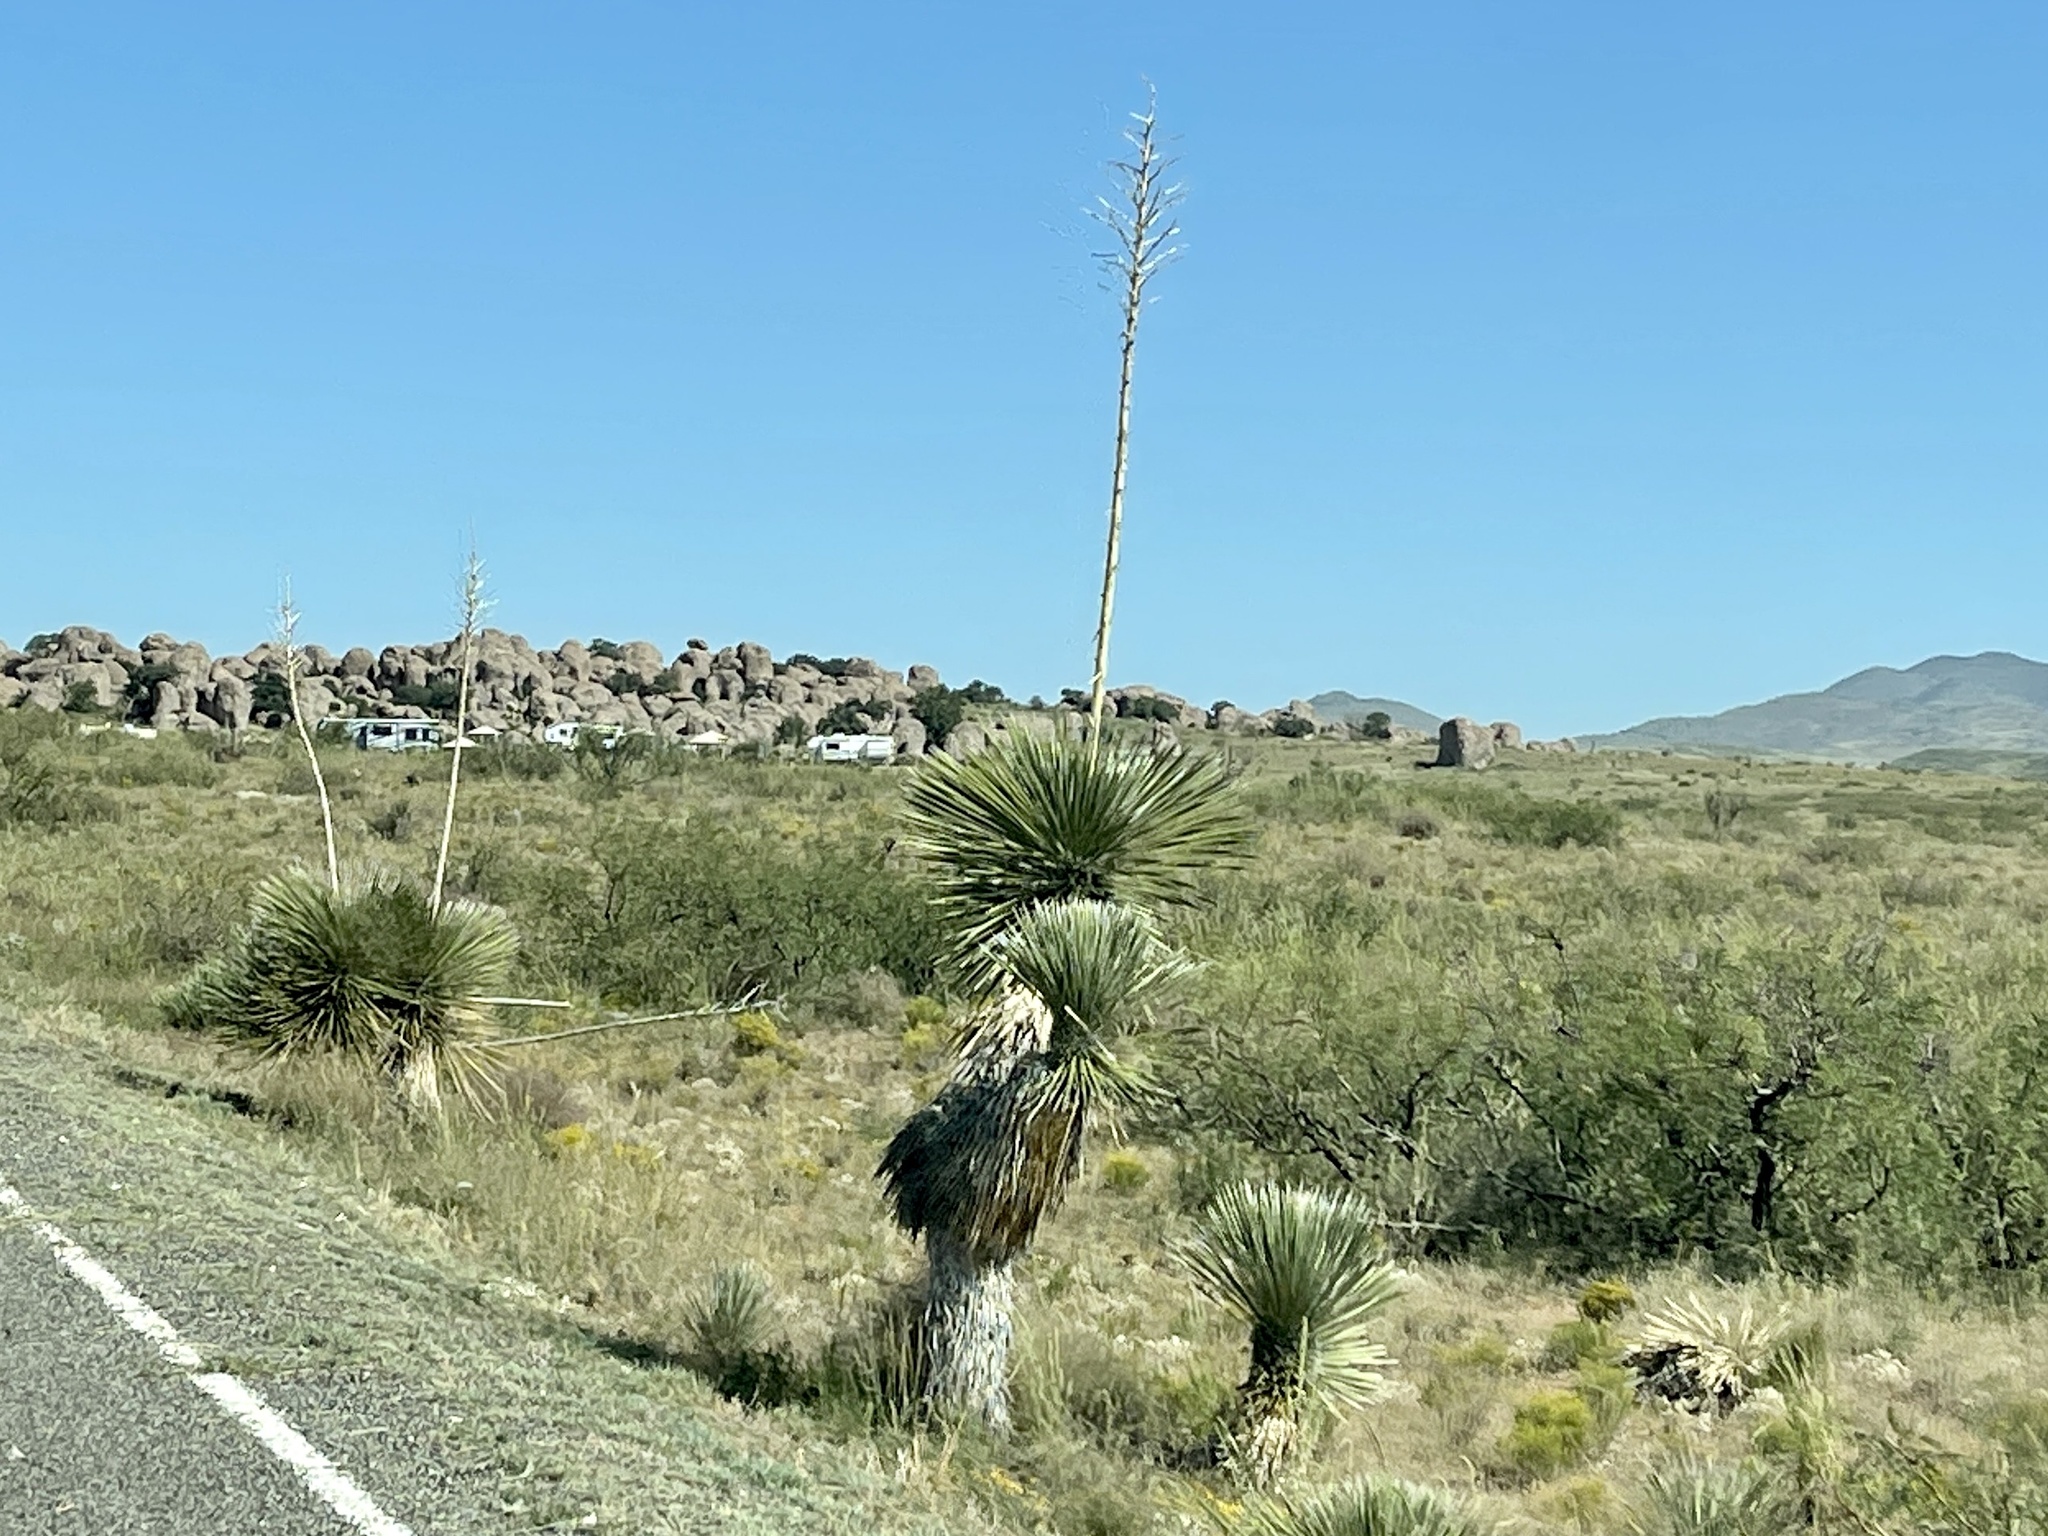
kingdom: Plantae
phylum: Tracheophyta
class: Liliopsida
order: Asparagales
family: Asparagaceae
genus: Yucca
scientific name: Yucca elata
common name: Palmella
